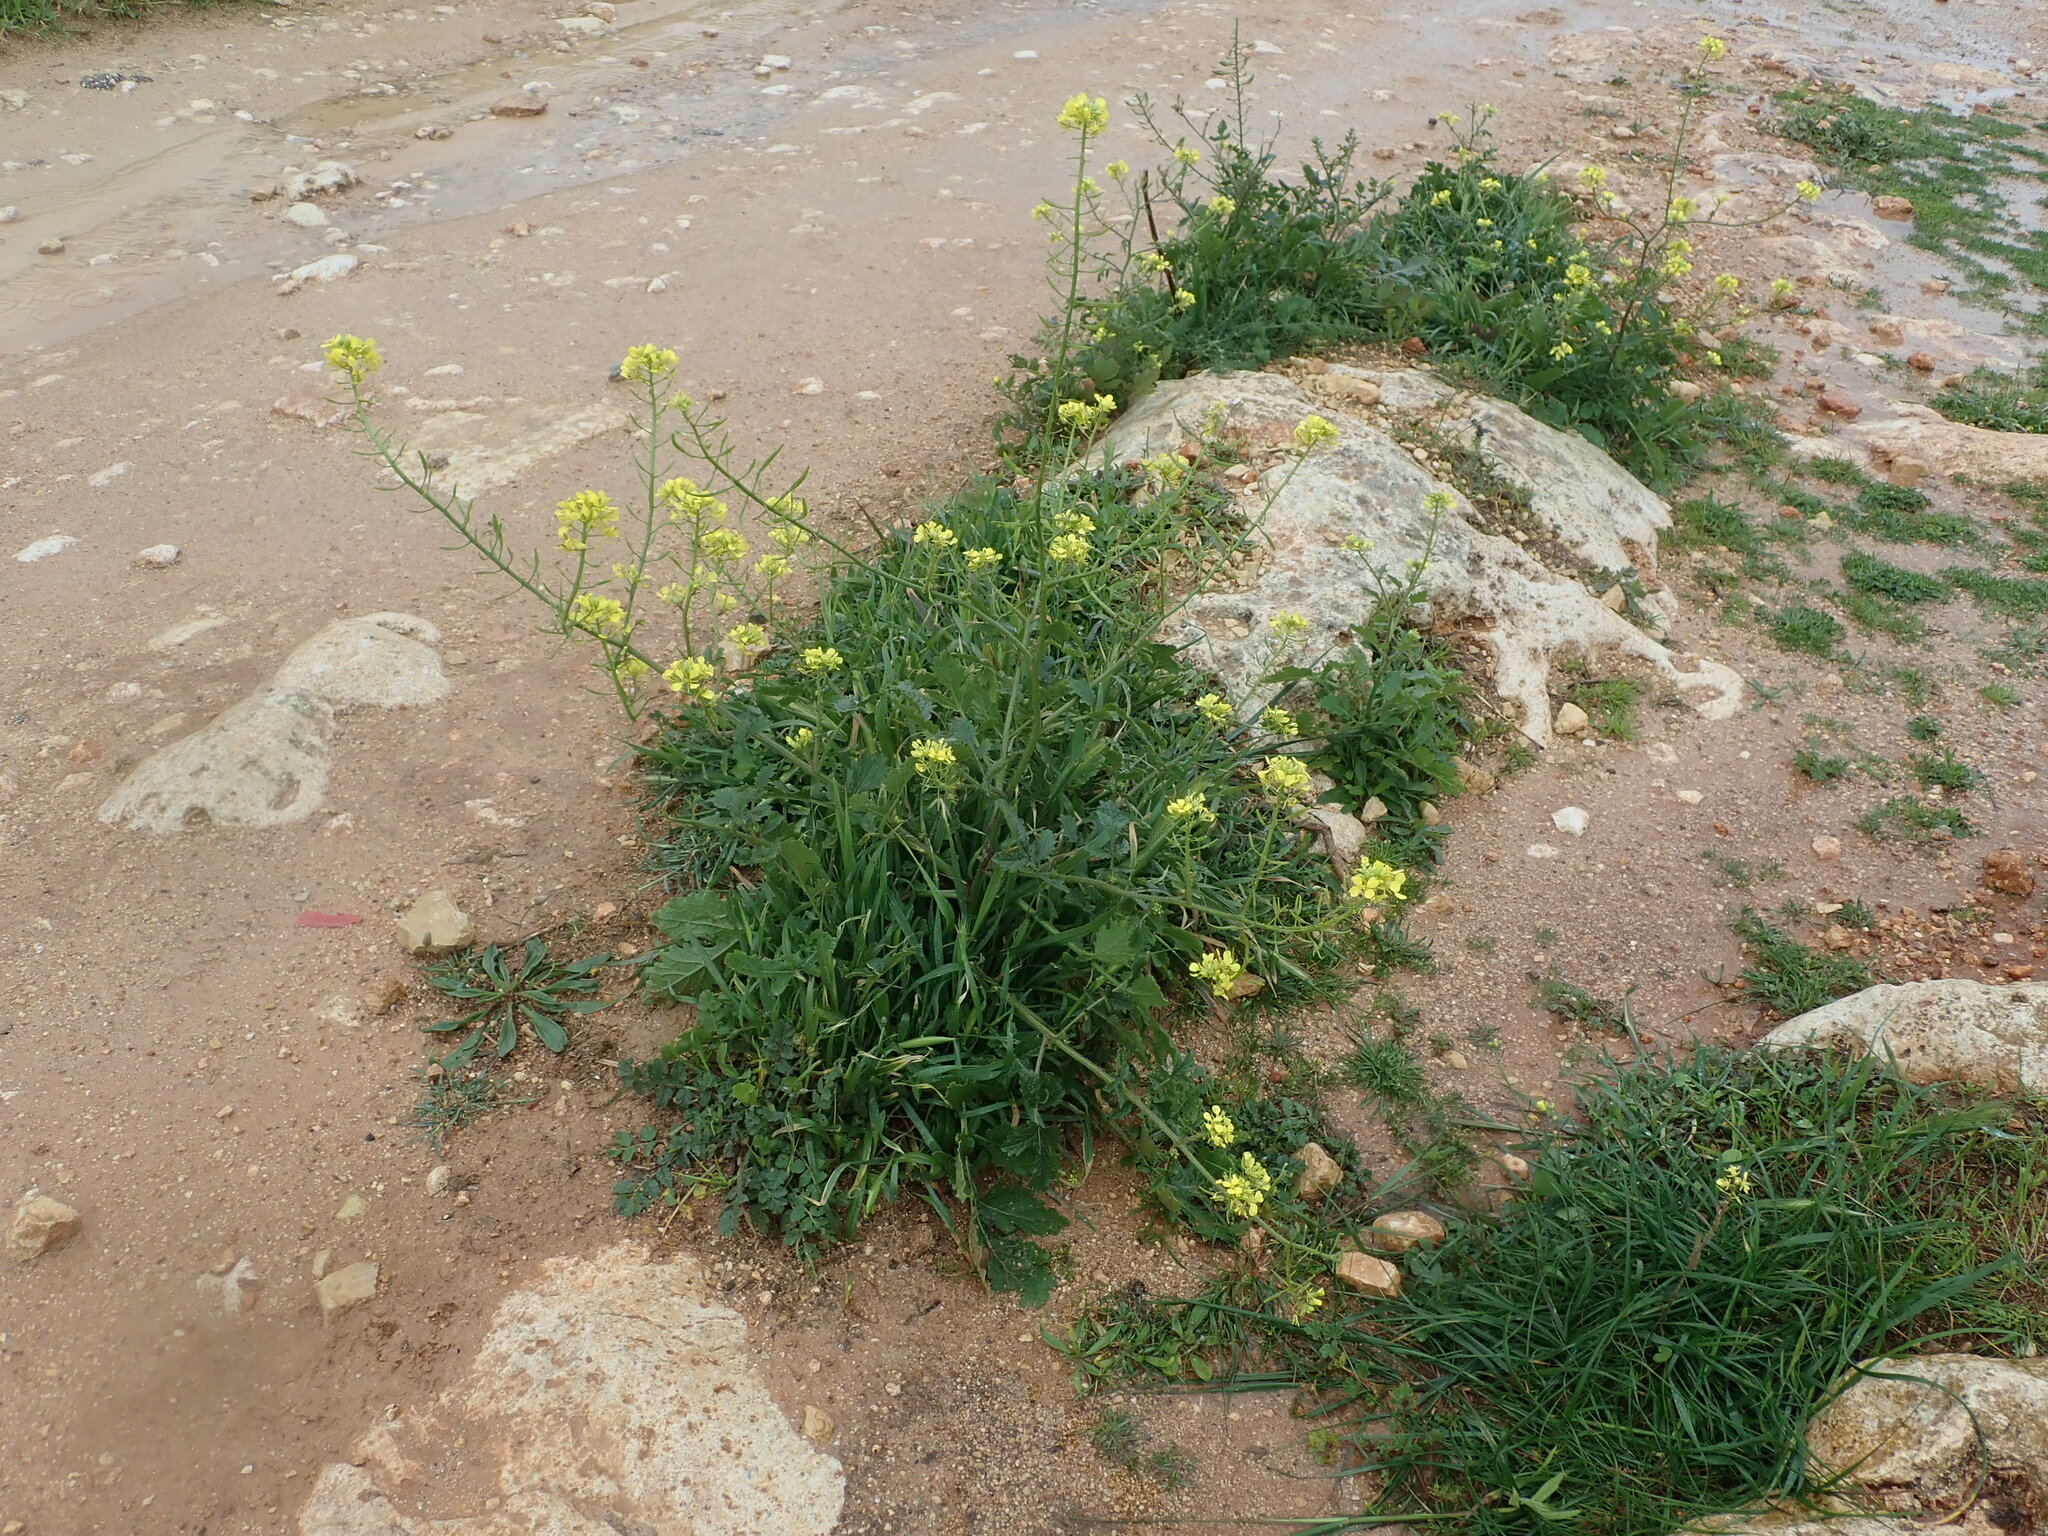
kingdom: Plantae
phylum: Tracheophyta
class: Magnoliopsida
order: Brassicales
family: Brassicaceae
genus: Sinapis
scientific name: Sinapis alba
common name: White mustard
